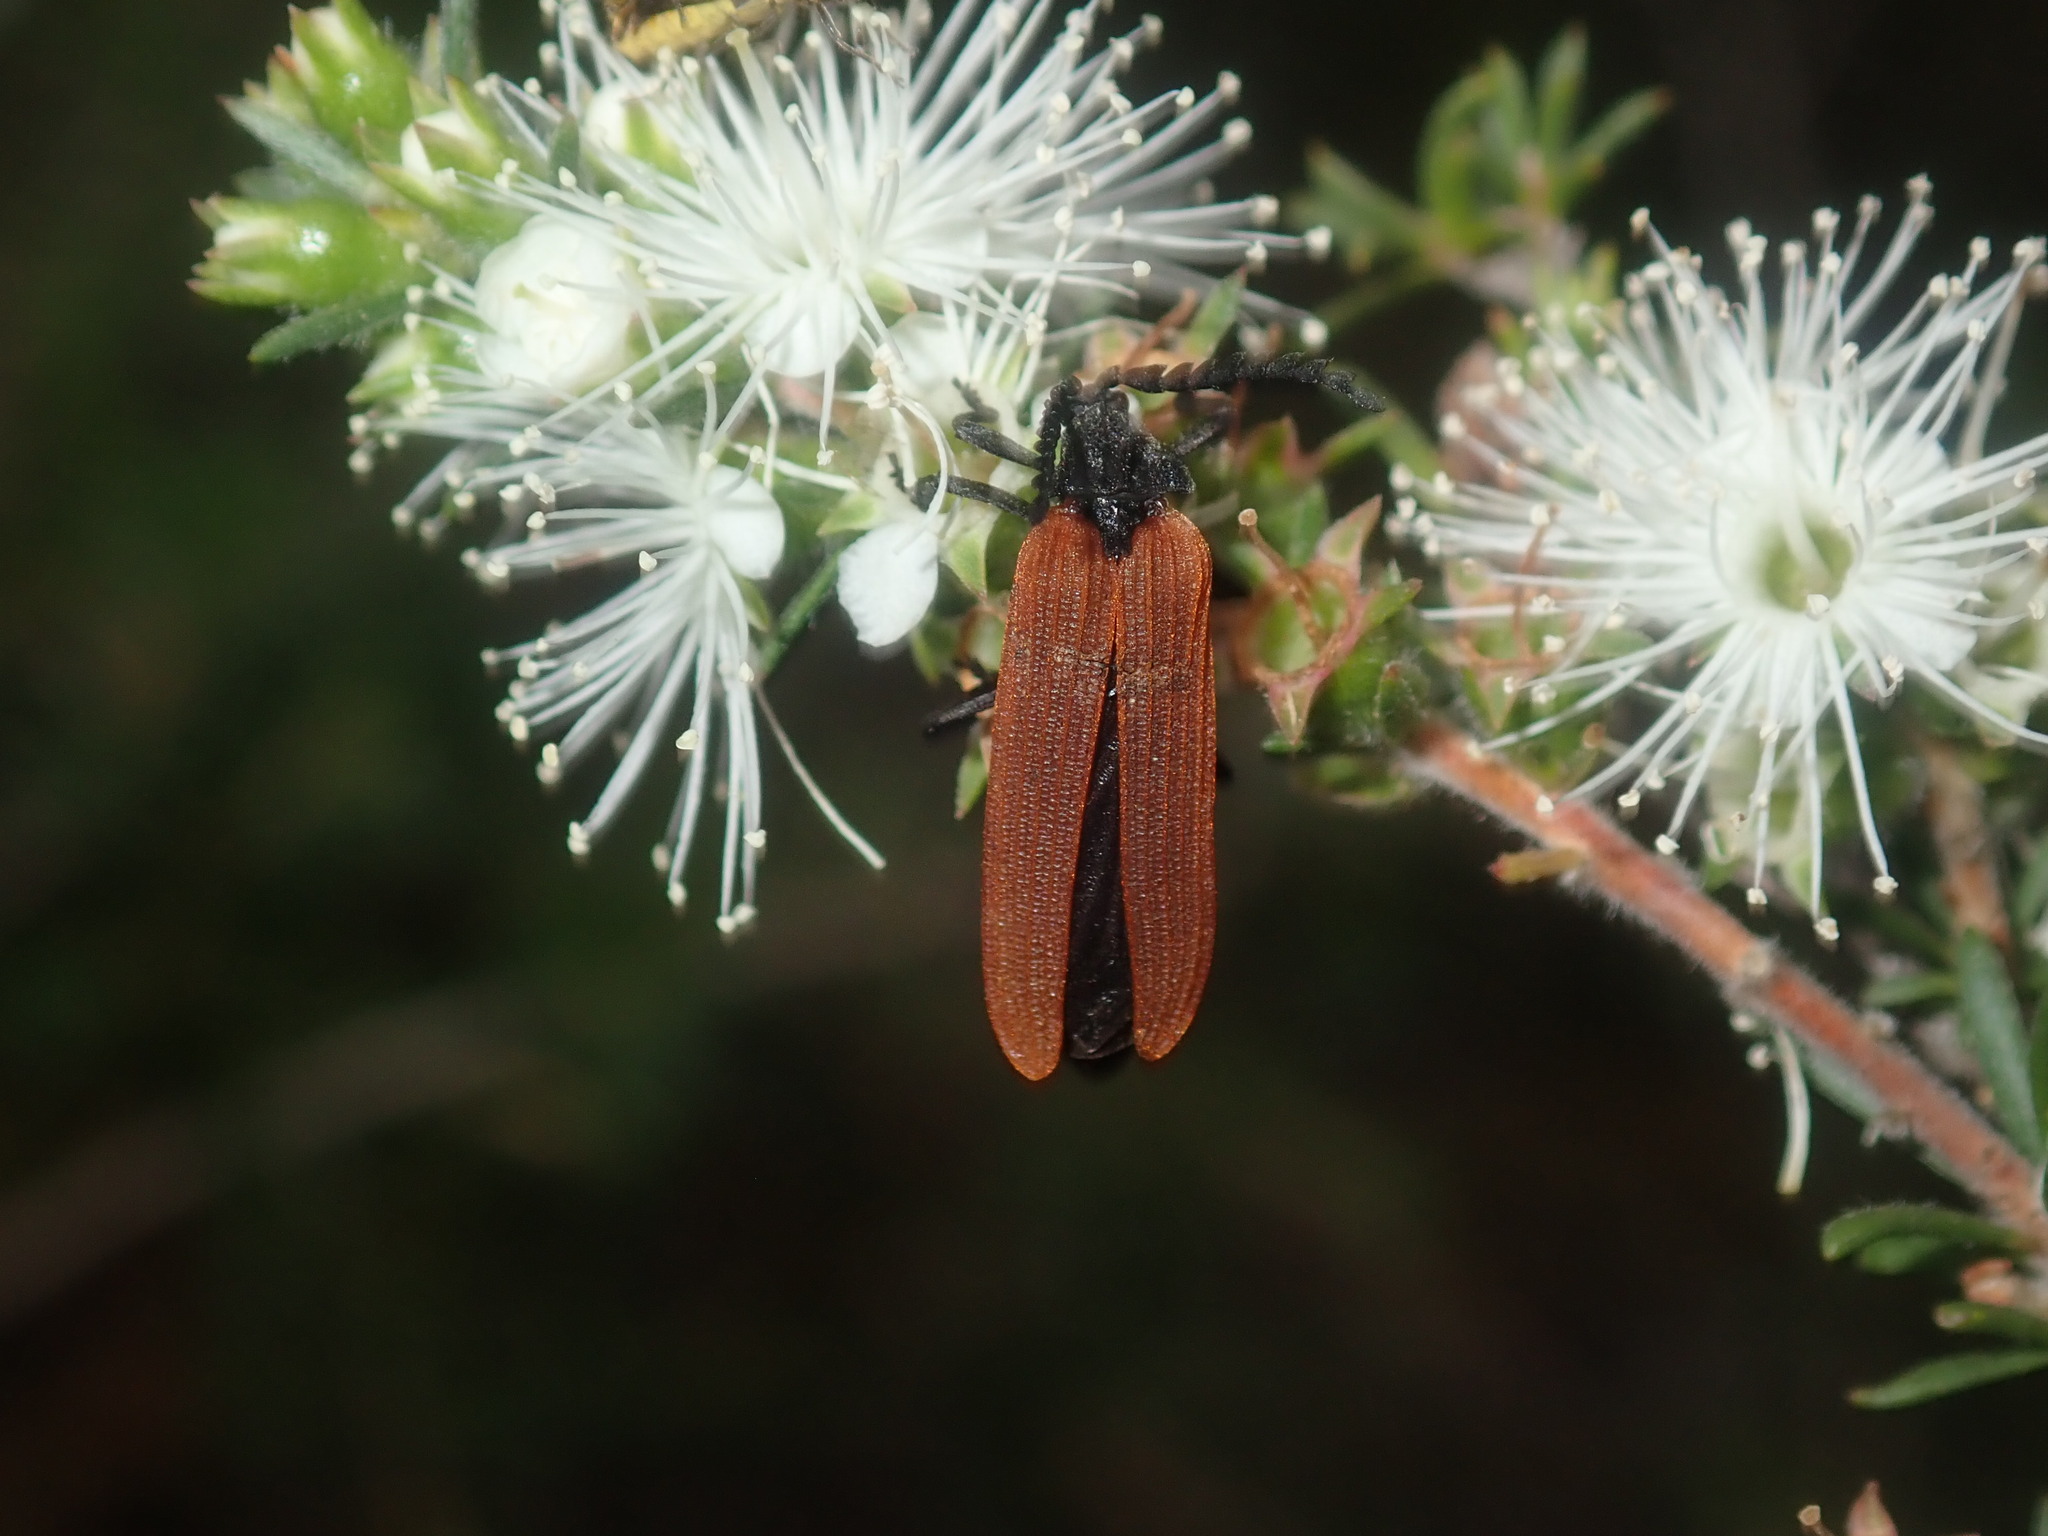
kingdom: Animalia
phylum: Arthropoda
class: Insecta
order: Coleoptera
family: Lycidae
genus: Porrostoma
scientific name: Porrostoma rhipidium
